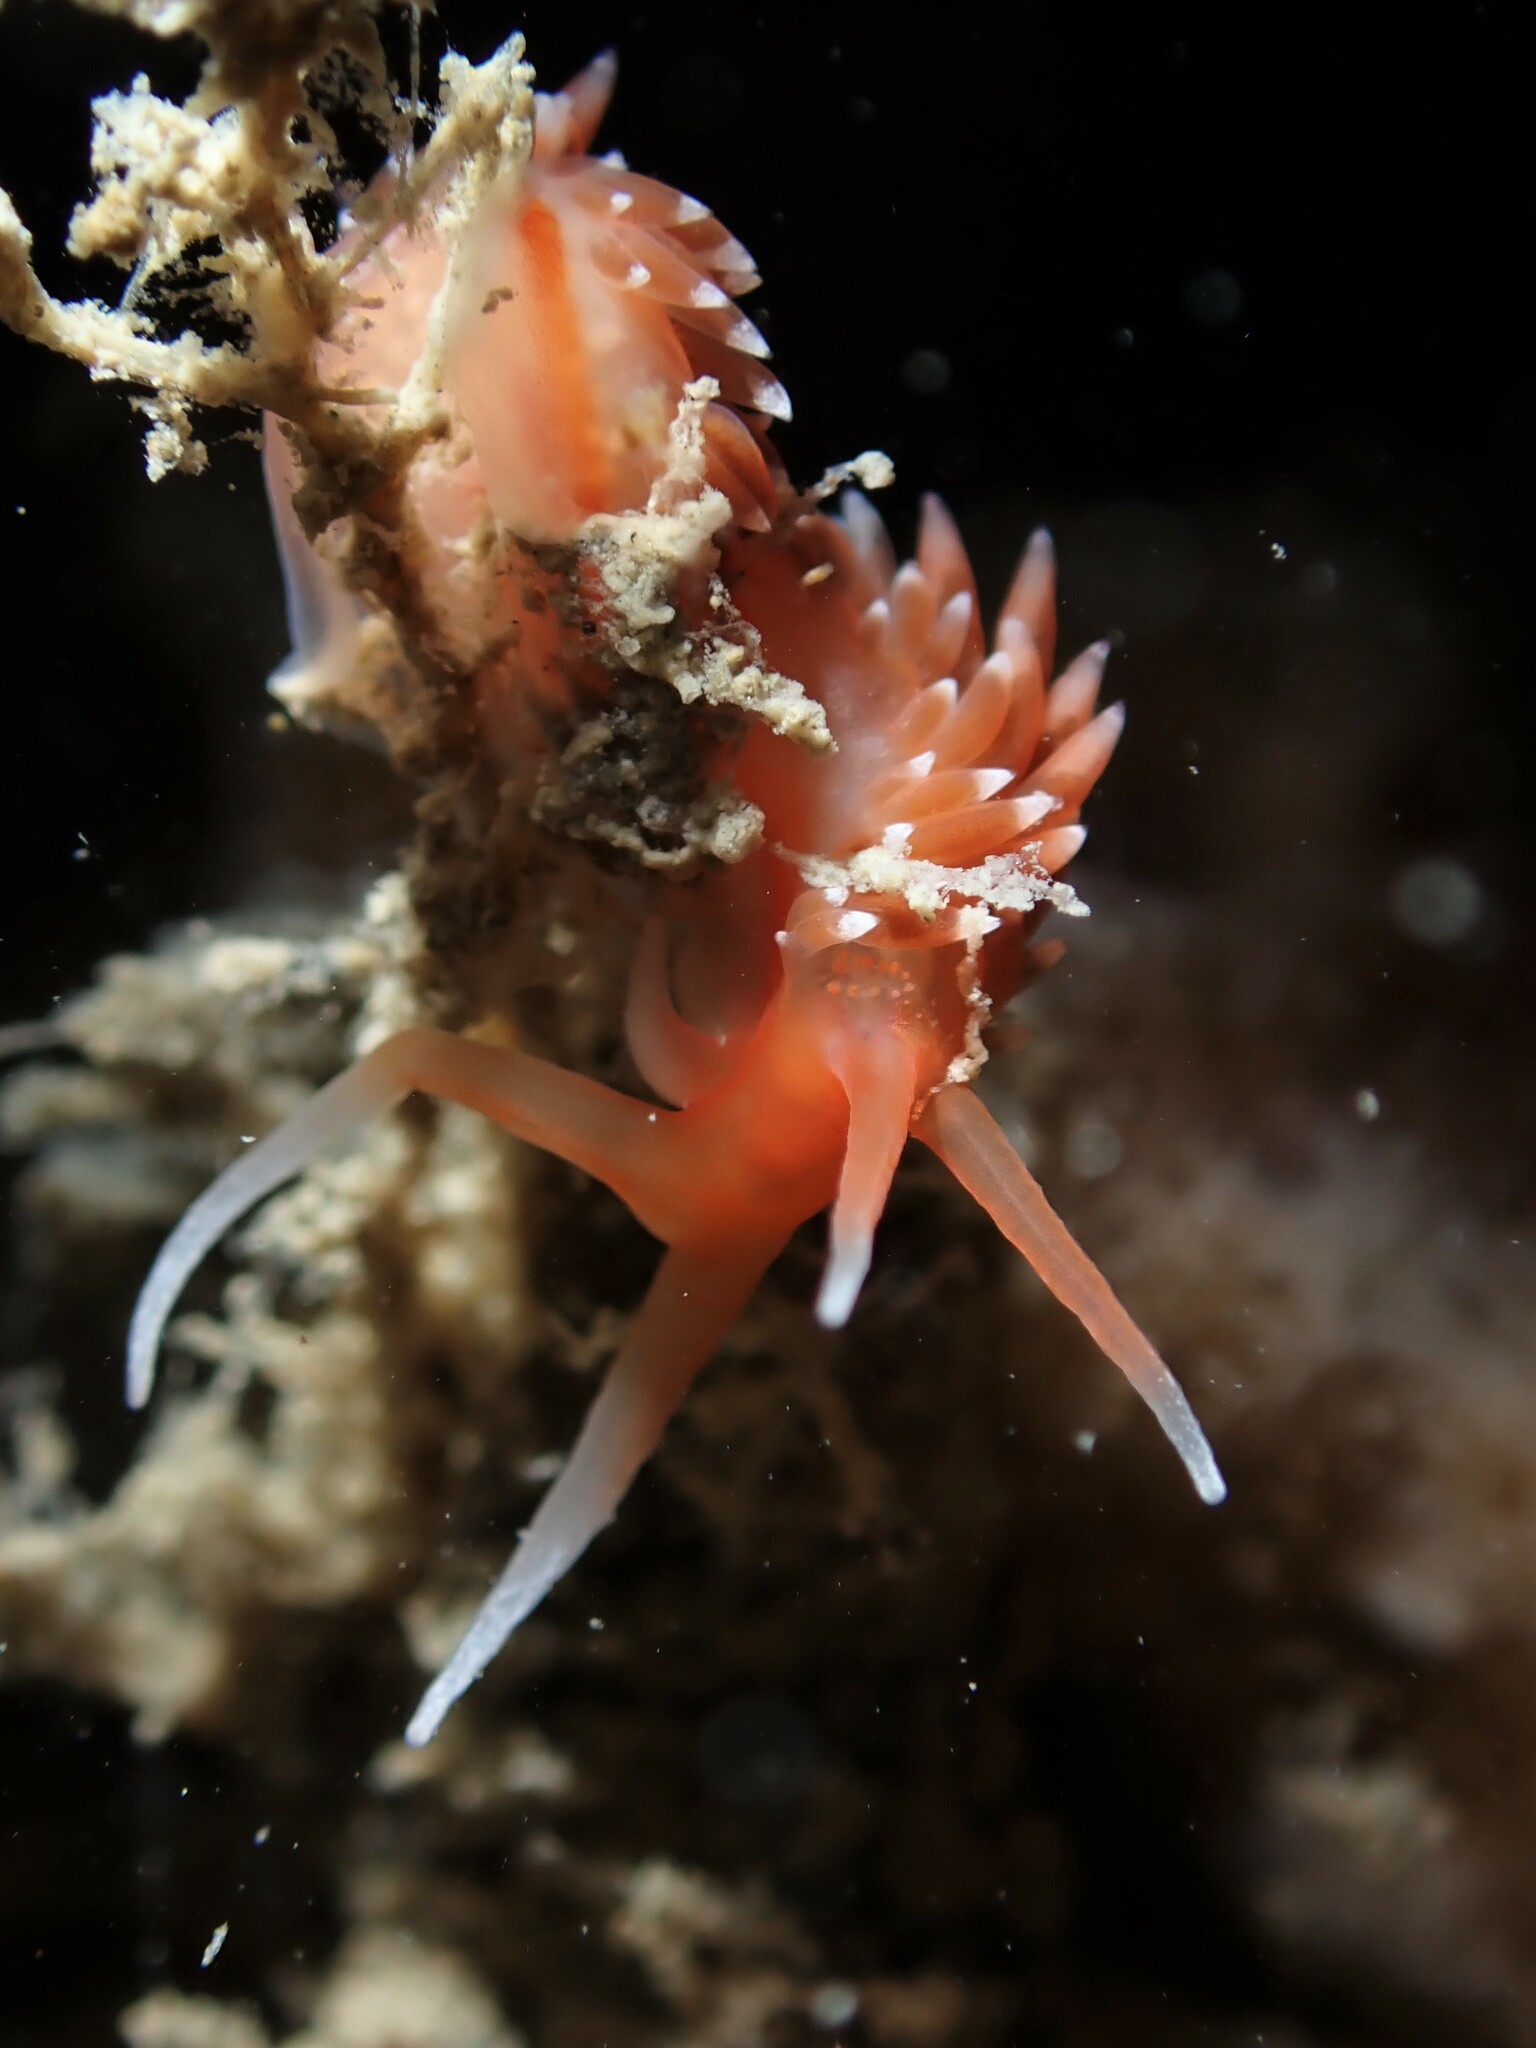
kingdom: Animalia
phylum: Mollusca
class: Gastropoda
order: Nudibranchia
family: Facelinidae
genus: Phidiana
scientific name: Phidiana milleri
